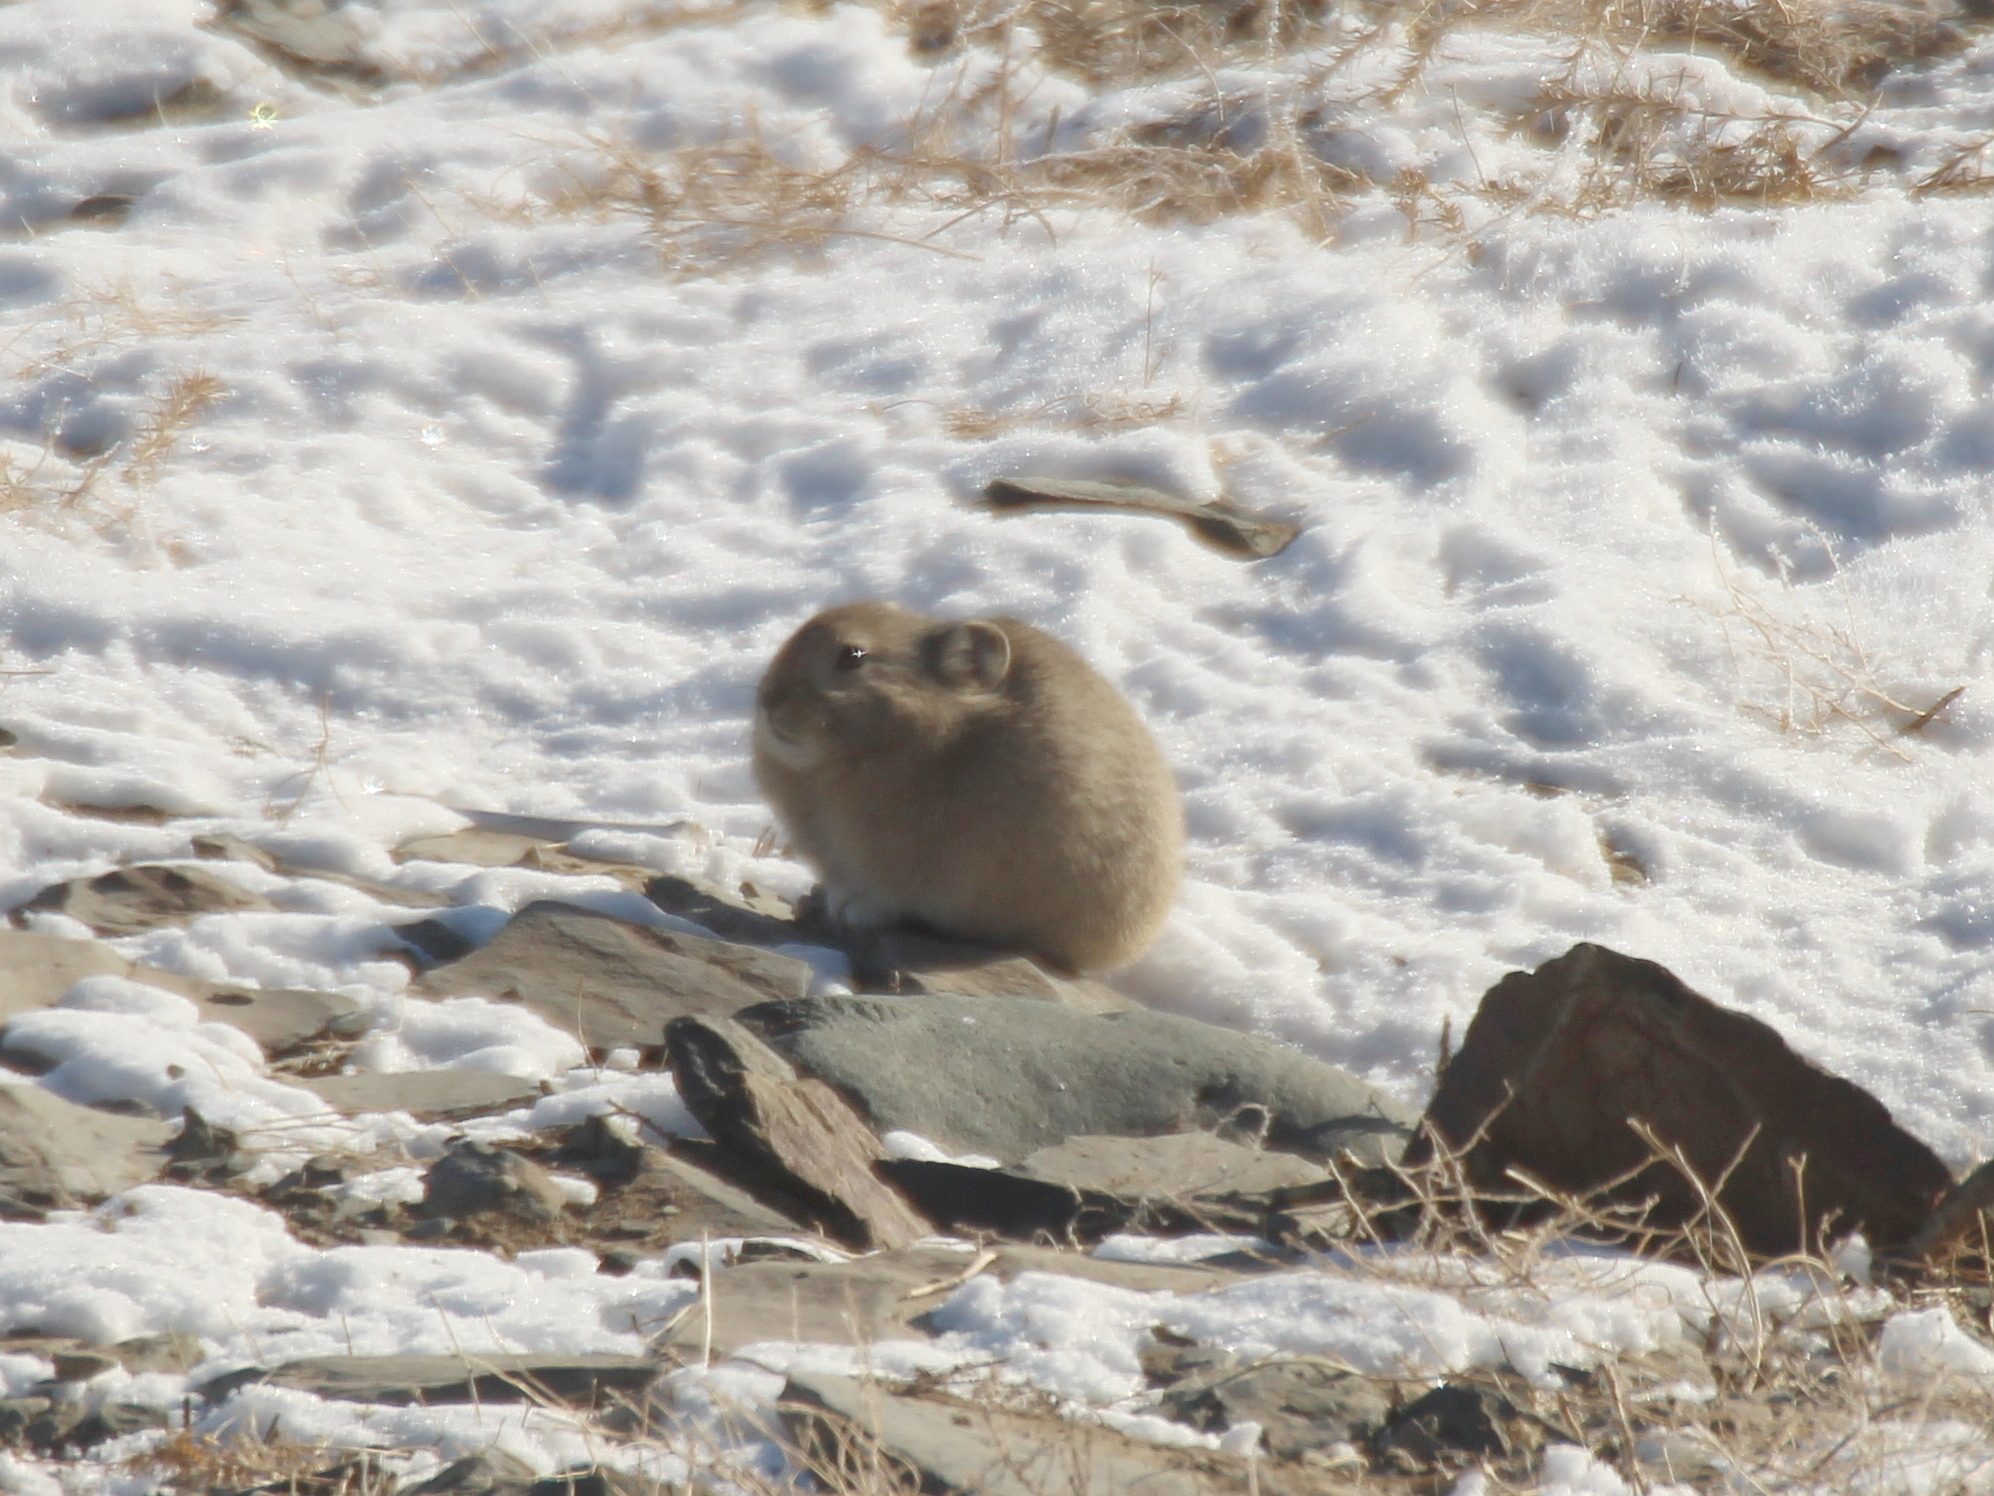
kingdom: Animalia
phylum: Chordata
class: Mammalia
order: Lagomorpha
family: Ochotonidae
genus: Ochotona
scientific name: Ochotona pallasi
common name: Mongolian pika
